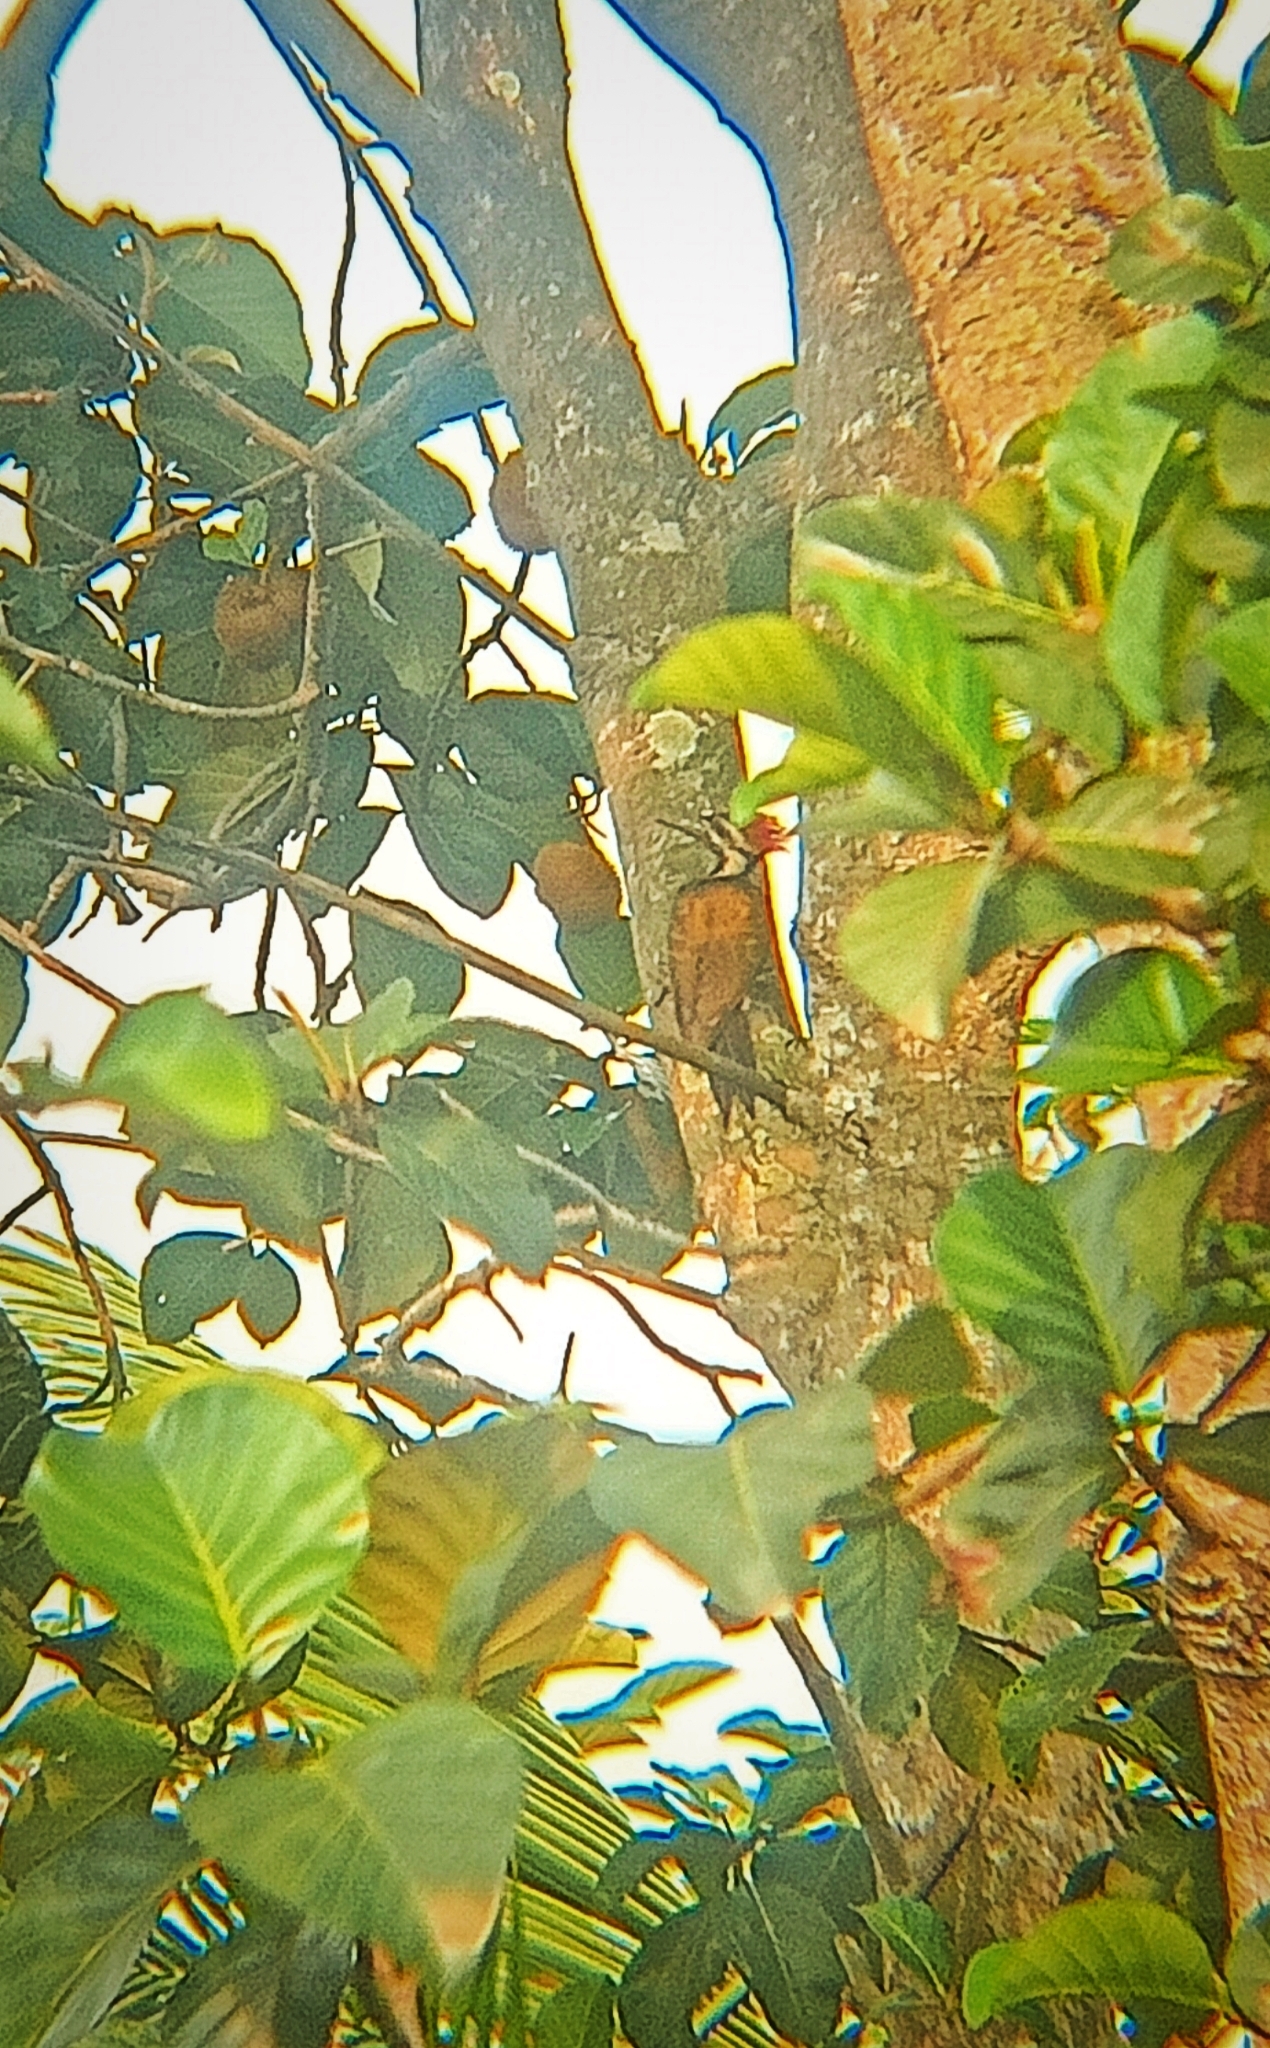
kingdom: Animalia
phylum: Chordata
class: Aves
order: Piciformes
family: Picidae
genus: Dinopium
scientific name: Dinopium benghalense
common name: Black-rumped flameback
